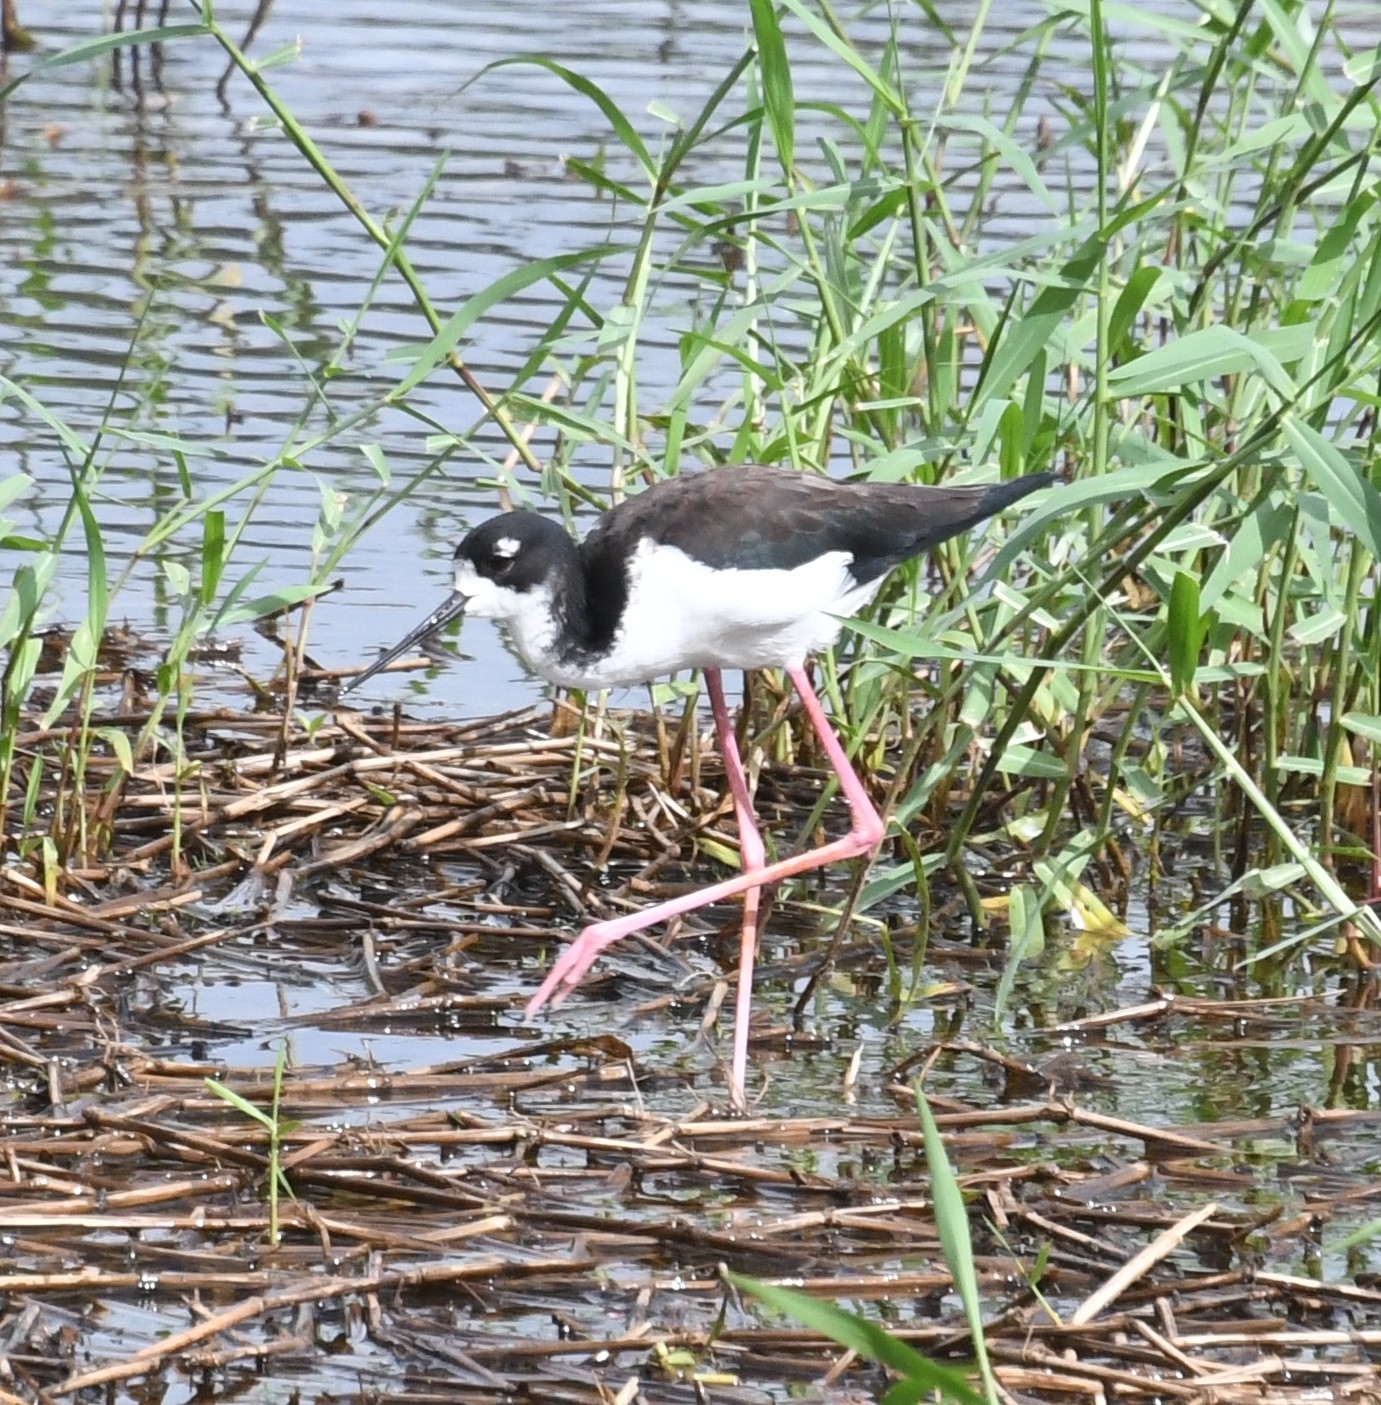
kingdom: Animalia
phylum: Chordata
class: Aves
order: Charadriiformes
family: Recurvirostridae
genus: Himantopus
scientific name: Himantopus mexicanus
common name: Black-necked stilt
